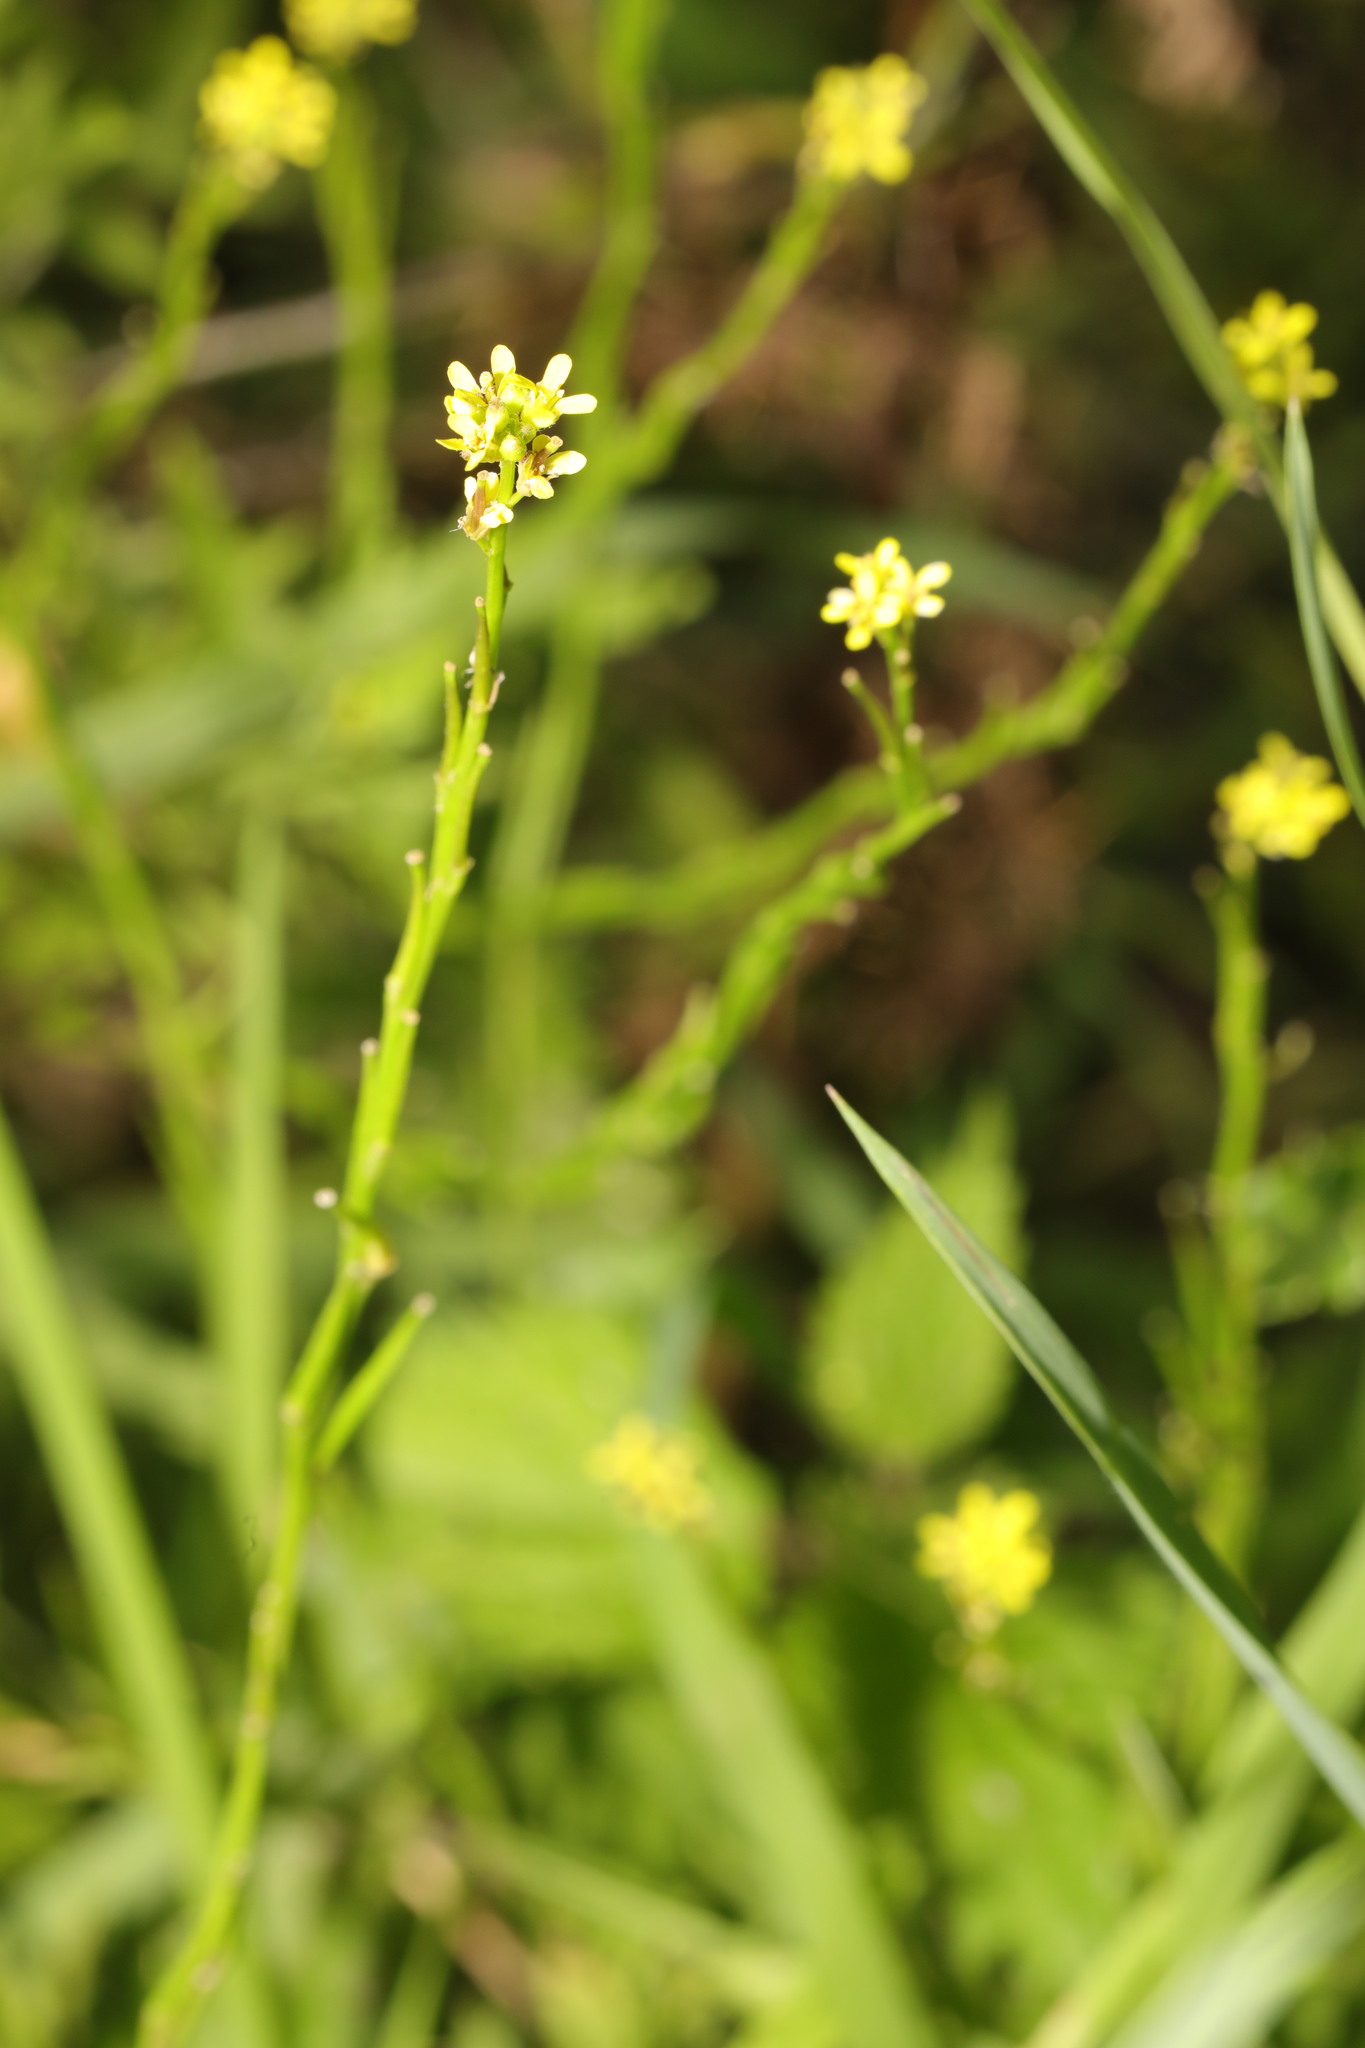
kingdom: Plantae
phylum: Tracheophyta
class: Magnoliopsida
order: Brassicales
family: Brassicaceae
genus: Sisymbrium
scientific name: Sisymbrium officinale
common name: Hedge mustard
